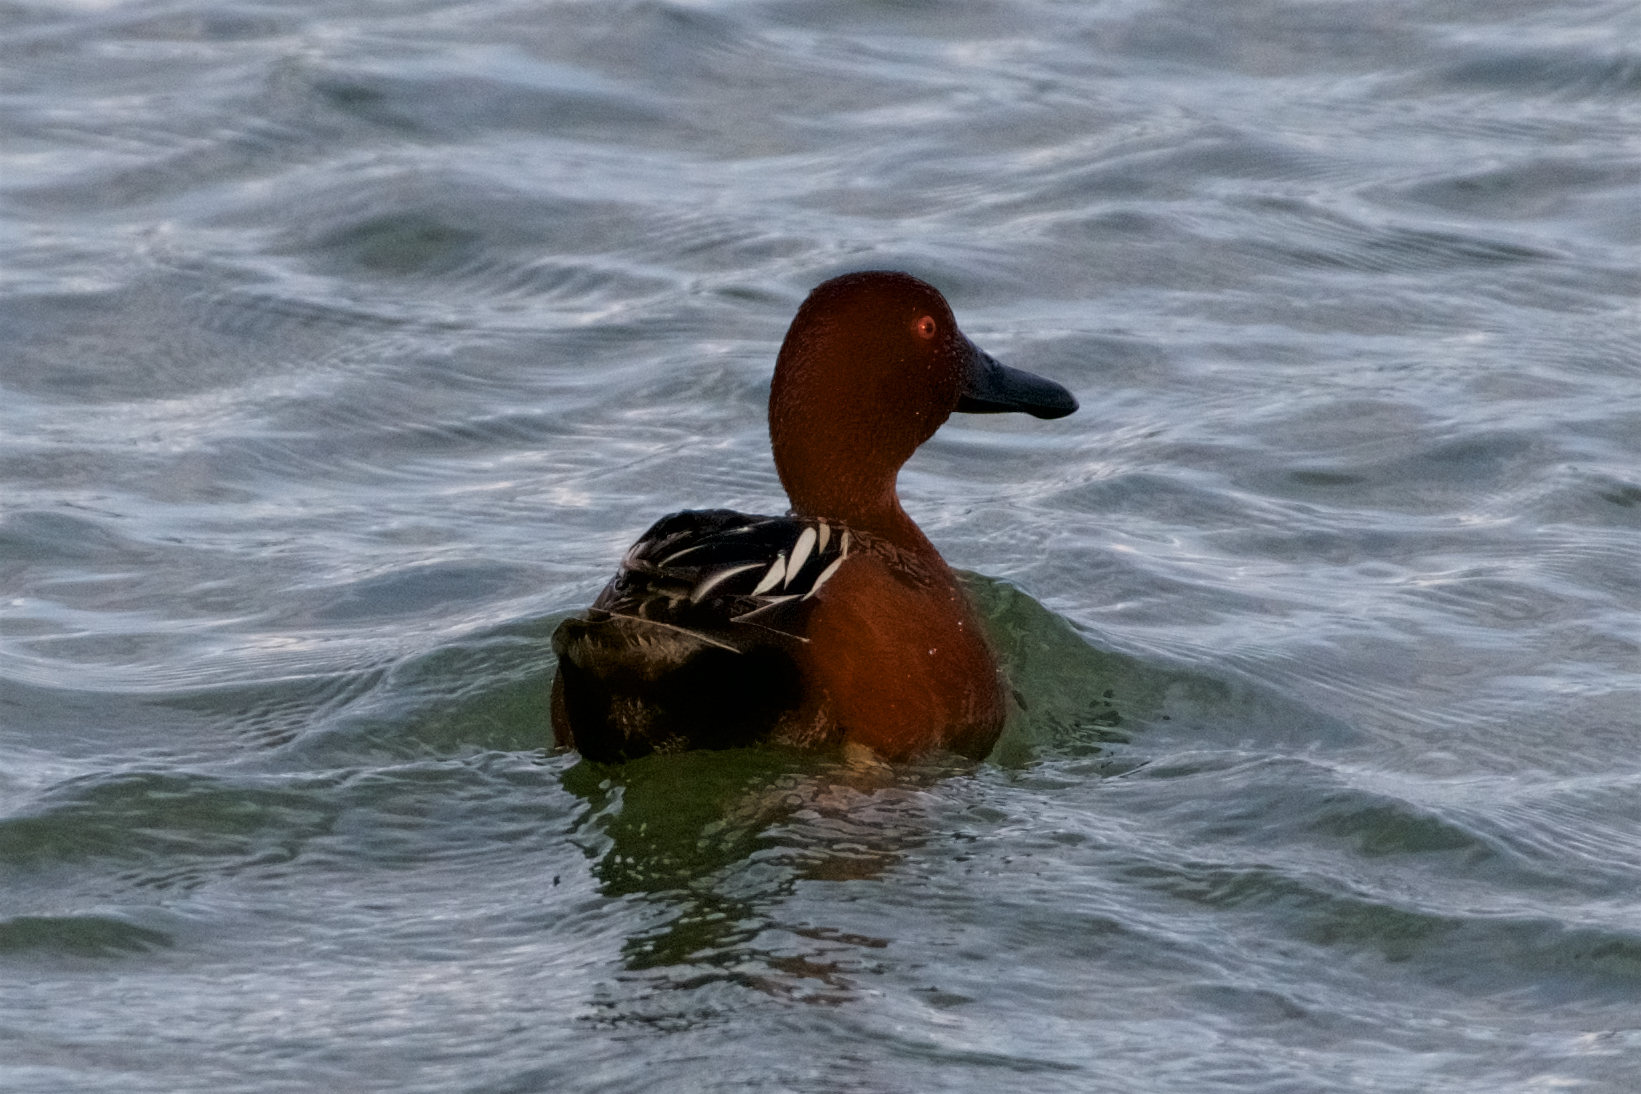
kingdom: Animalia
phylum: Chordata
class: Aves
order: Anseriformes
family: Anatidae
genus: Spatula
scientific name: Spatula cyanoptera
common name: Cinnamon teal
